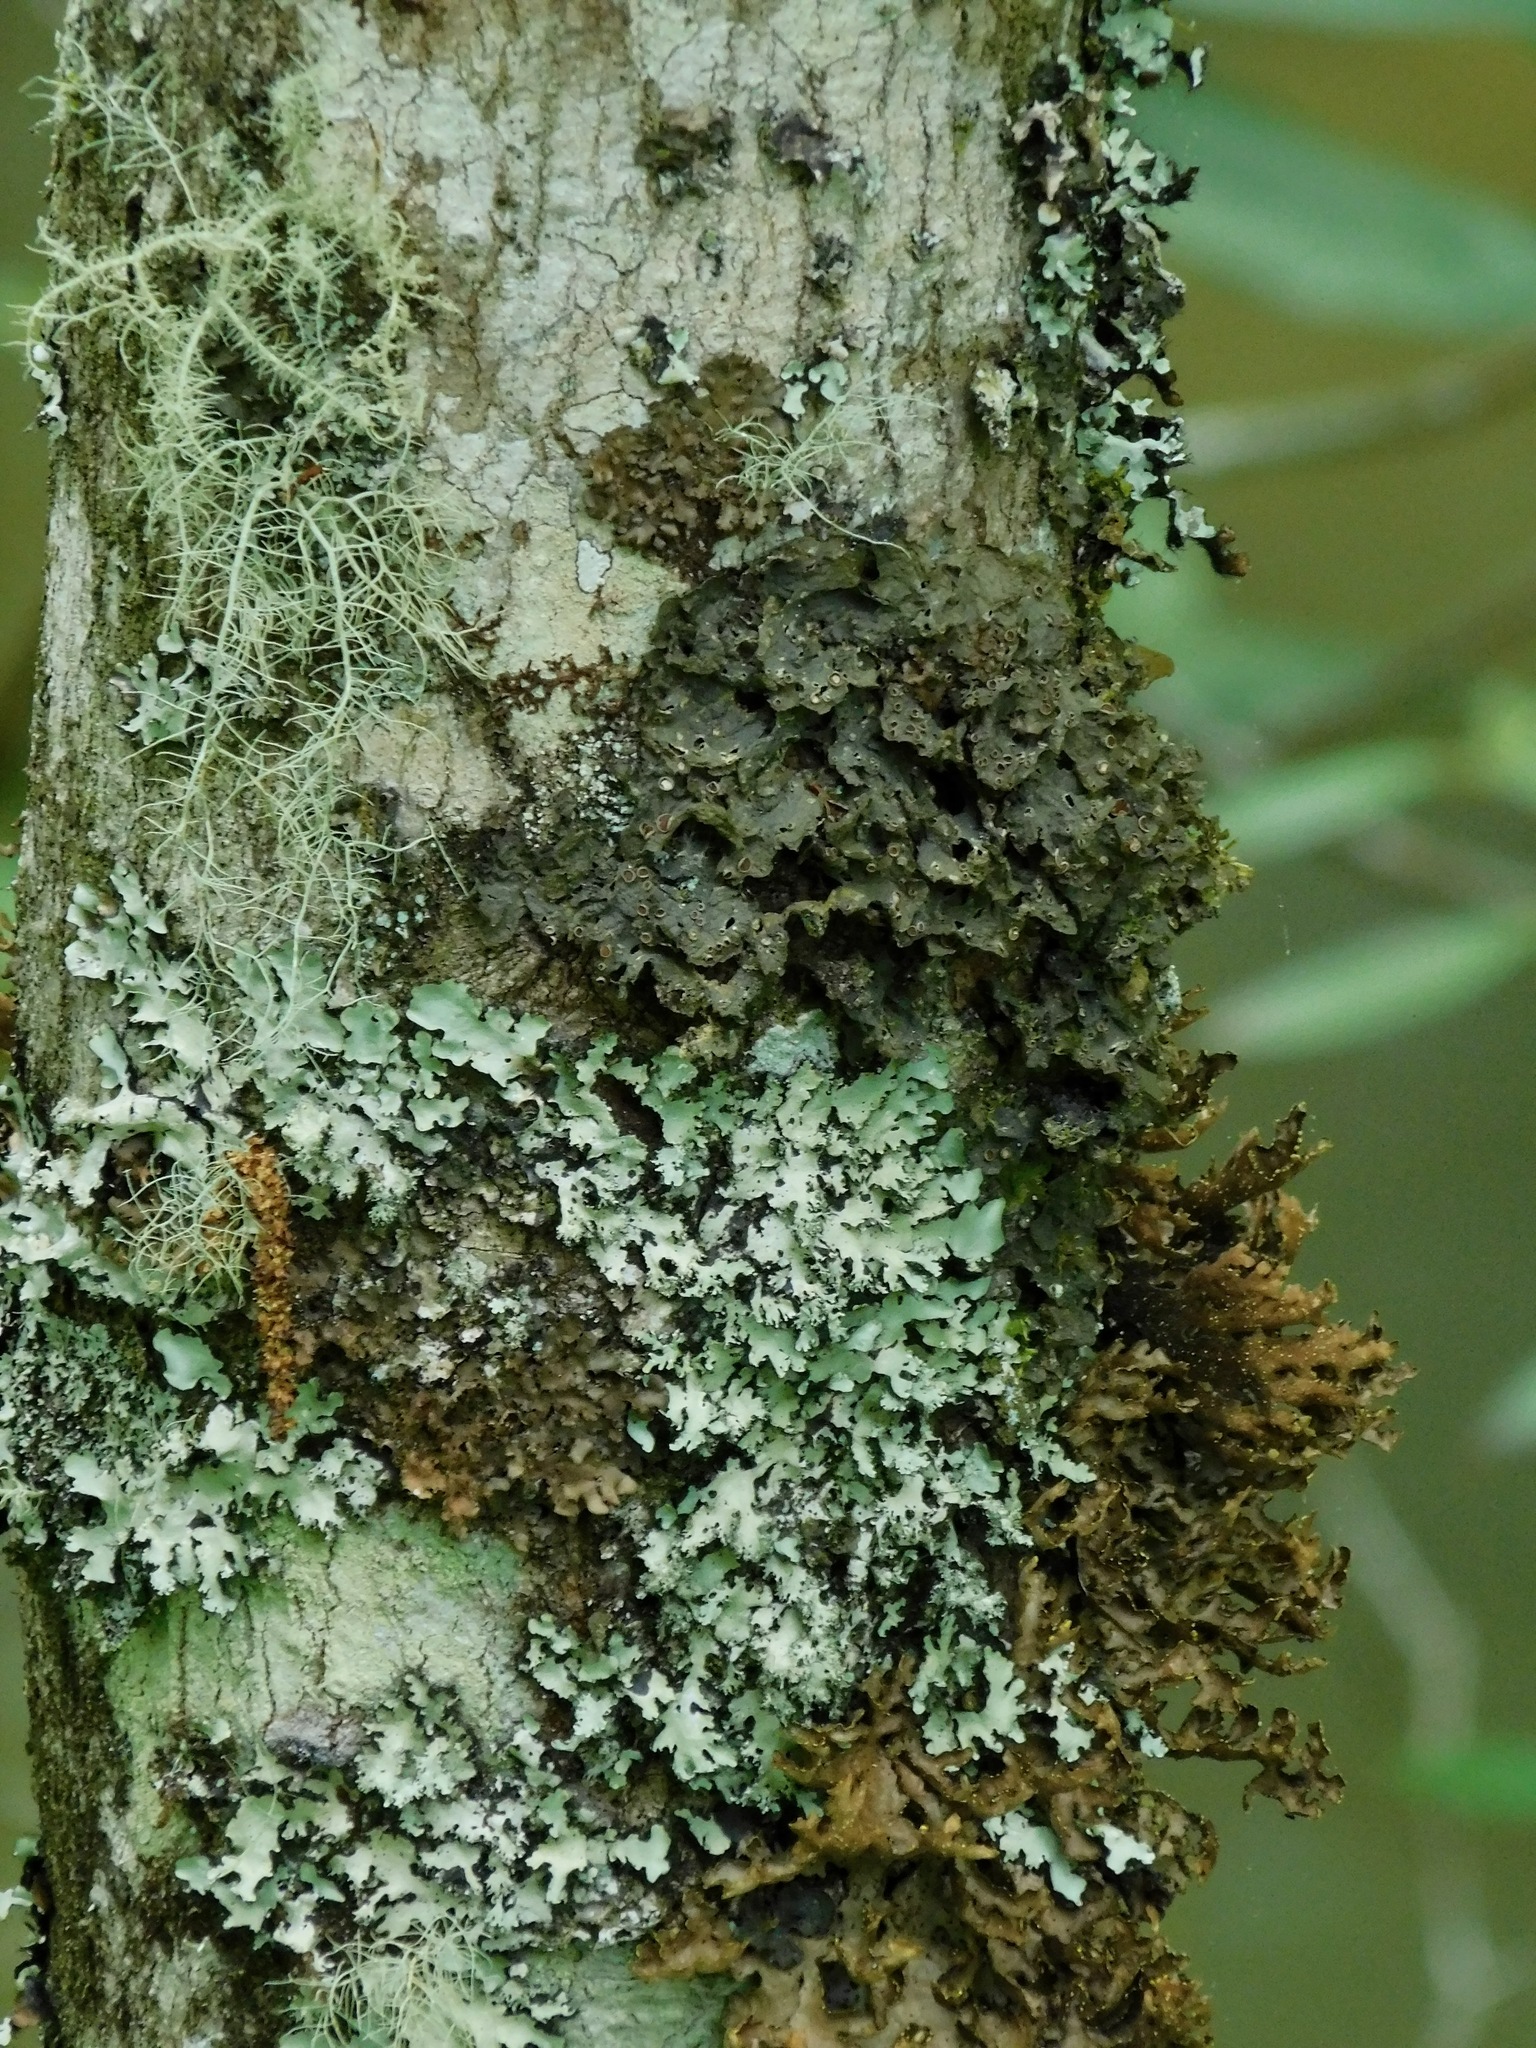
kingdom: Fungi
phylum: Ascomycota
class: Lecanoromycetes
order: Peltigerales
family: Collemataceae
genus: Leptogium
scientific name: Leptogium corticola
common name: Blistered jellyskin lichen
